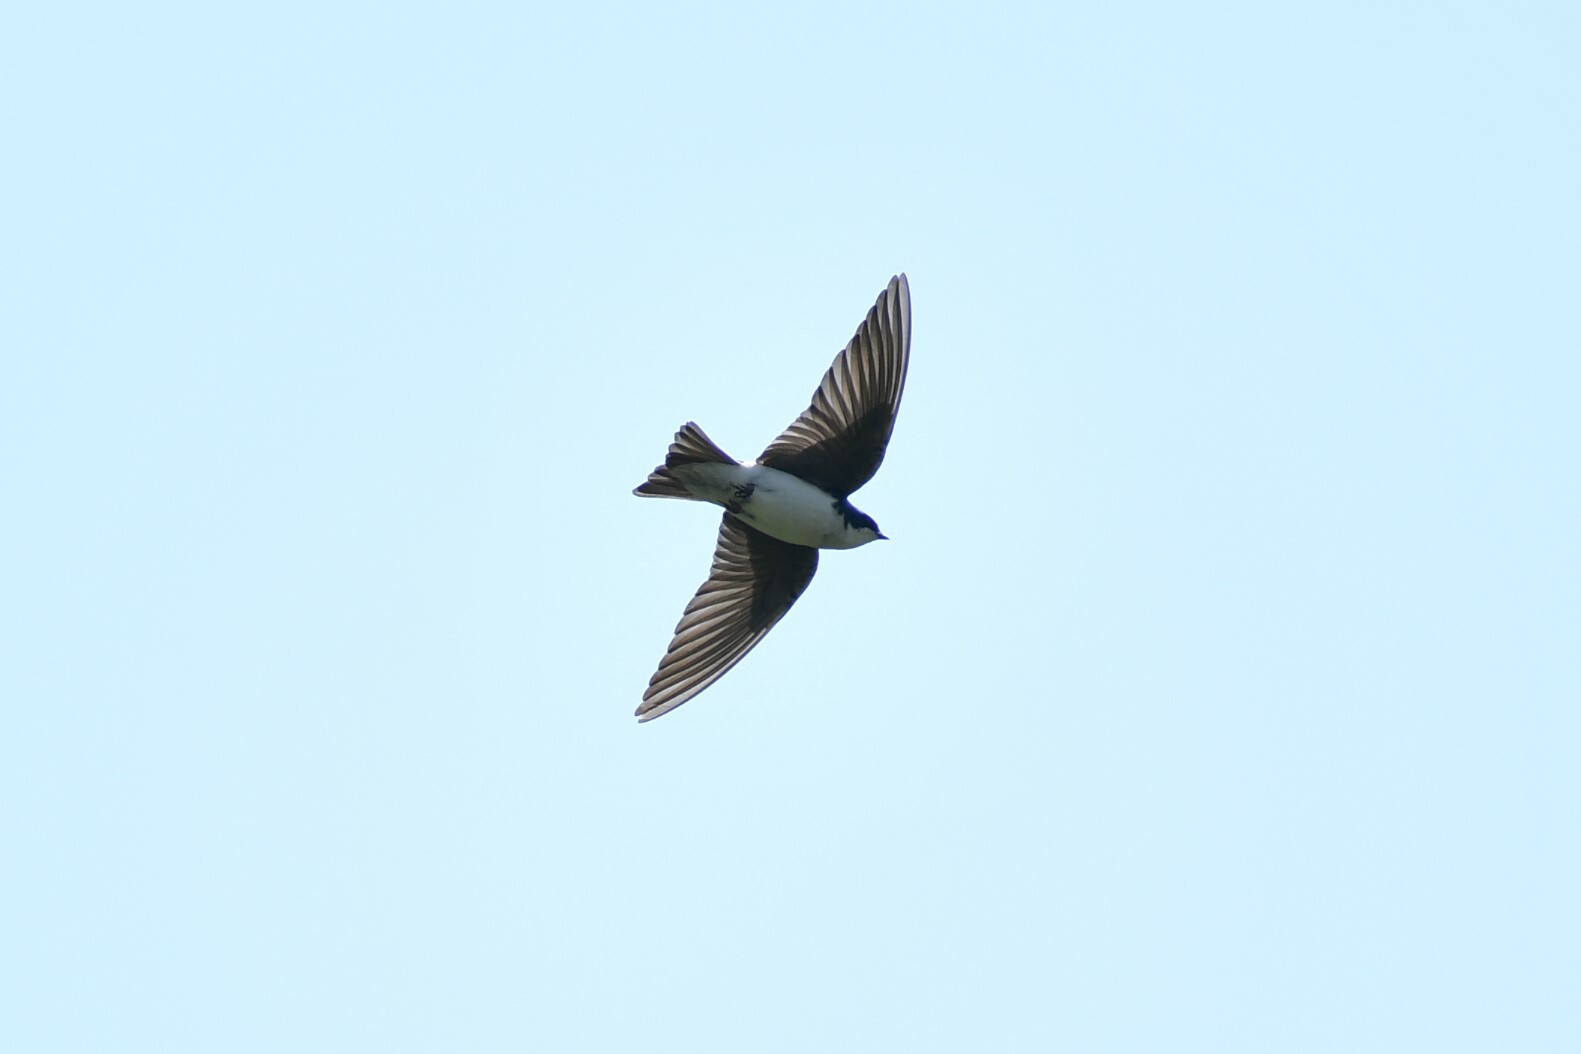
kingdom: Animalia
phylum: Chordata
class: Aves
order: Passeriformes
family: Hirundinidae
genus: Tachycineta
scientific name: Tachycineta bicolor
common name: Tree swallow
